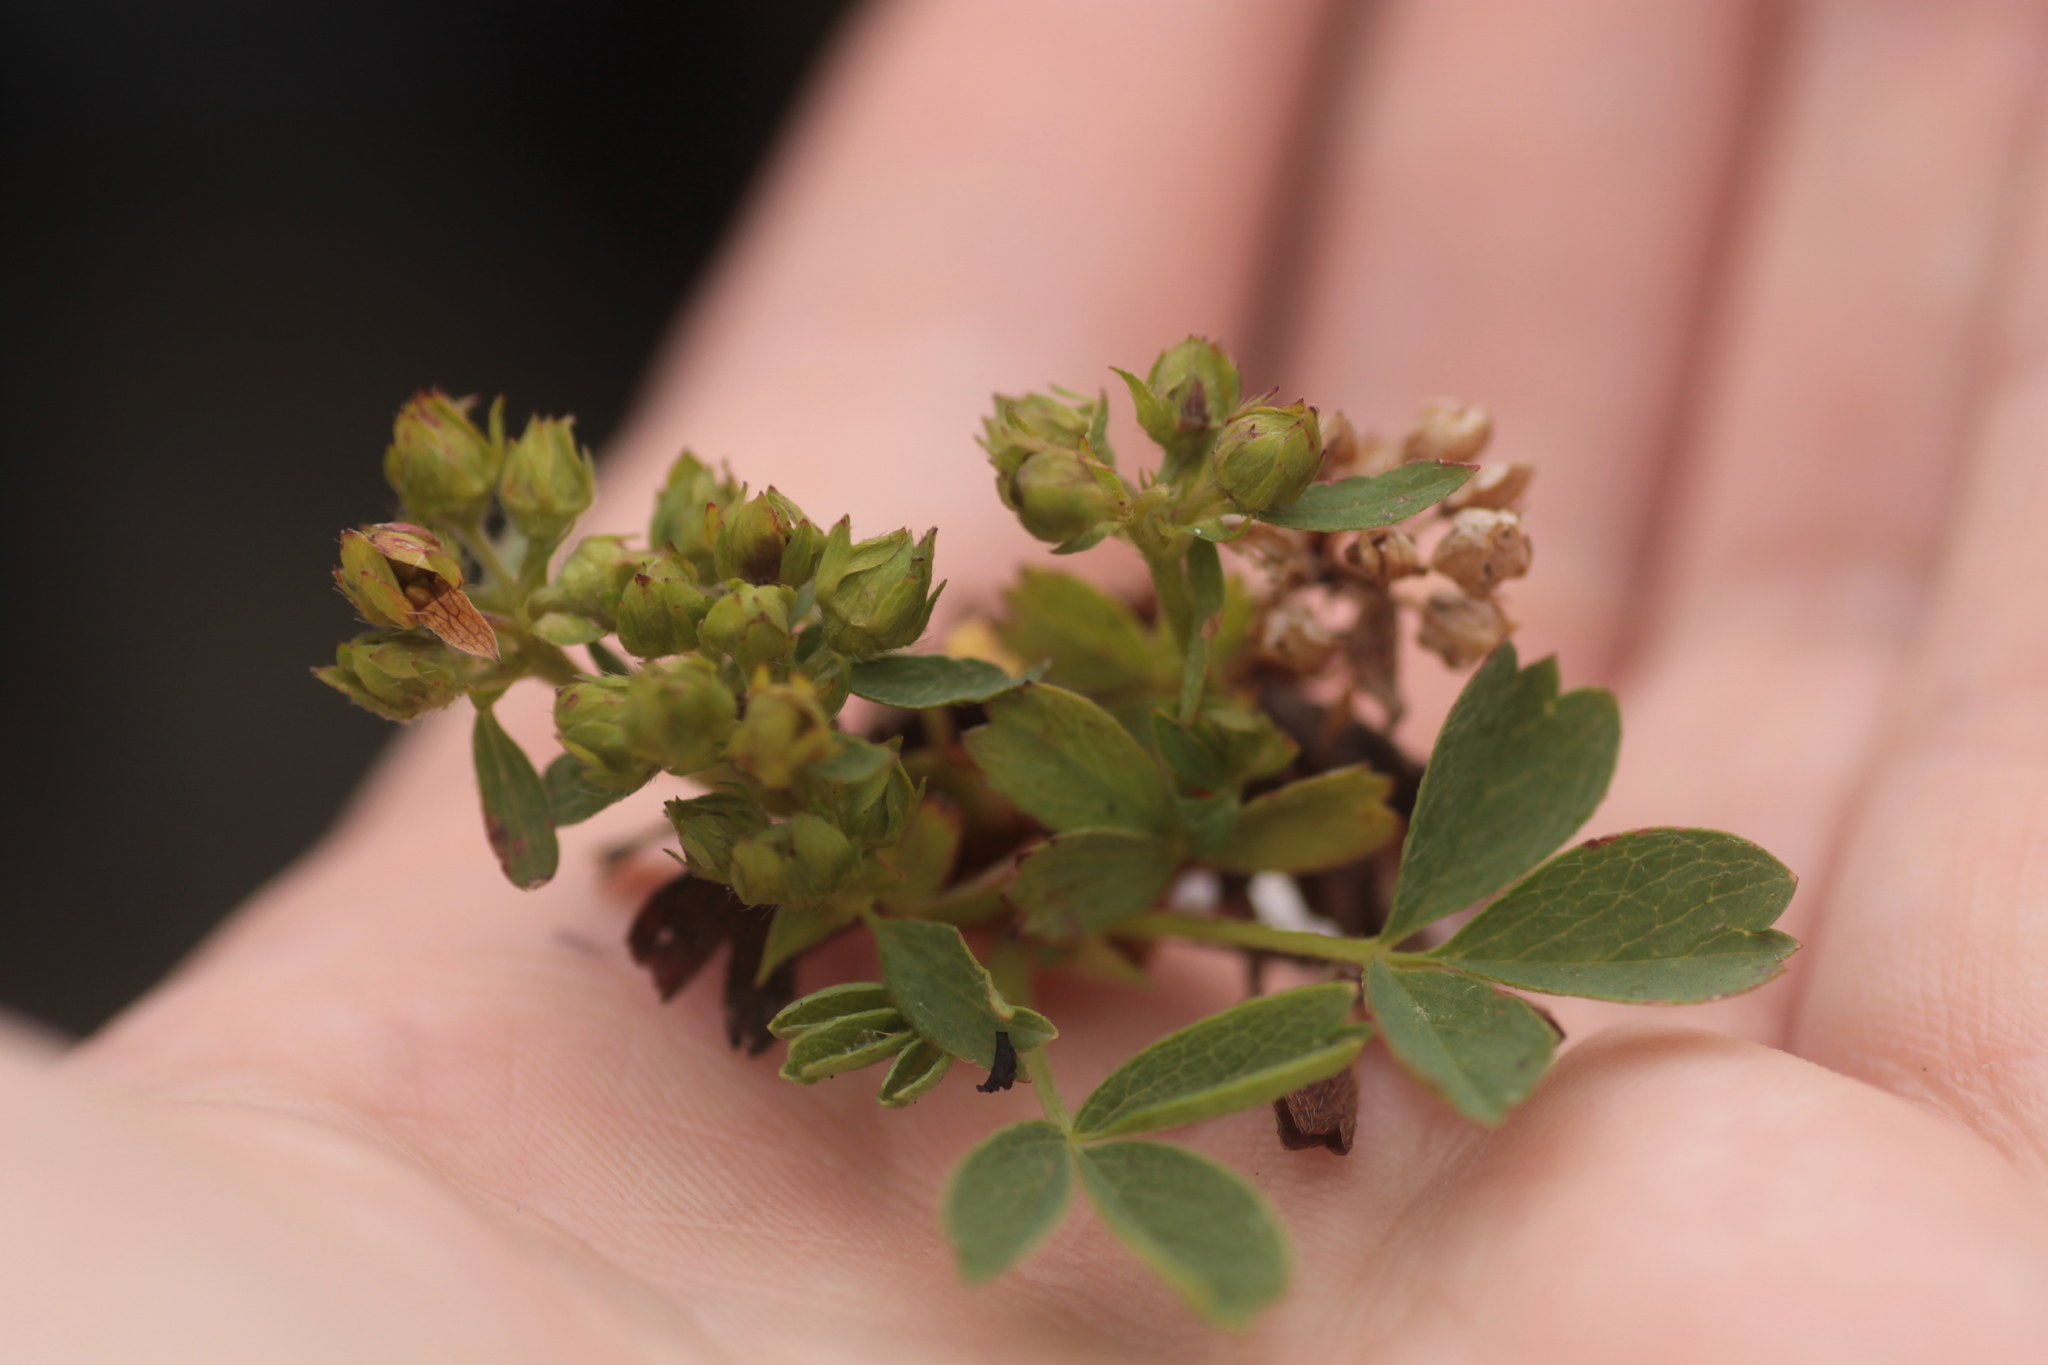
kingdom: Plantae
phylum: Tracheophyta
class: Magnoliopsida
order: Rosales
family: Rosaceae
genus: Sibbaldia
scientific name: Sibbaldia procumbens
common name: Creeping sibbaldia
